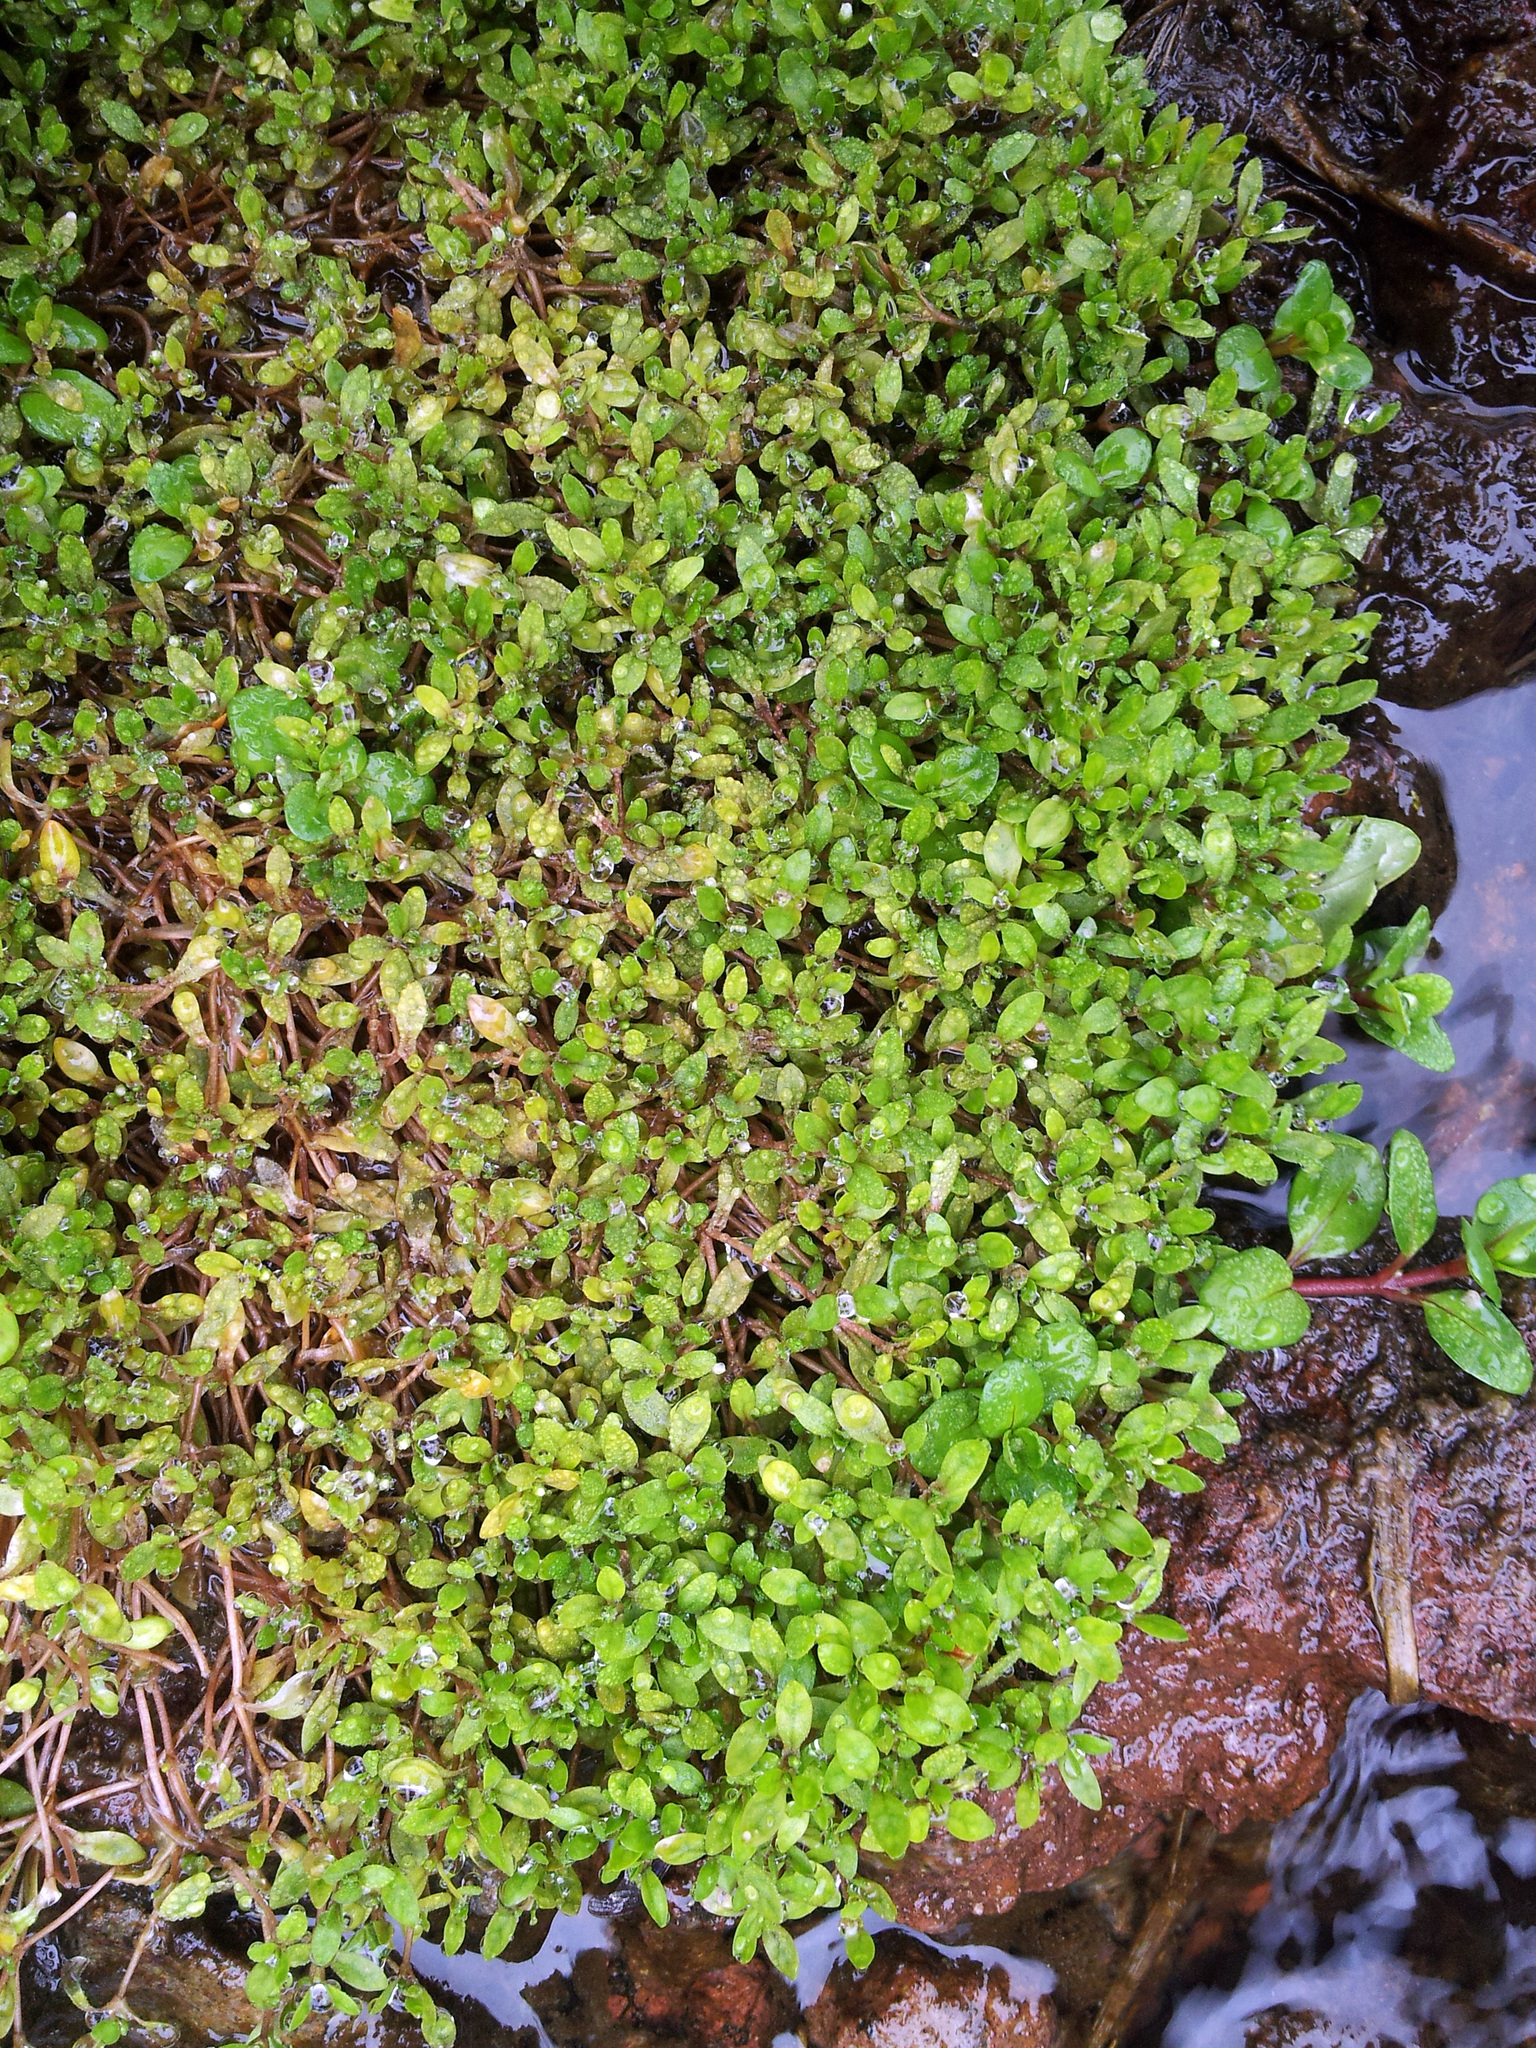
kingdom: Plantae
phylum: Tracheophyta
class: Magnoliopsida
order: Caryophyllales
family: Montiaceae
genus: Montia
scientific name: Montia fontana
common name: Blinks
